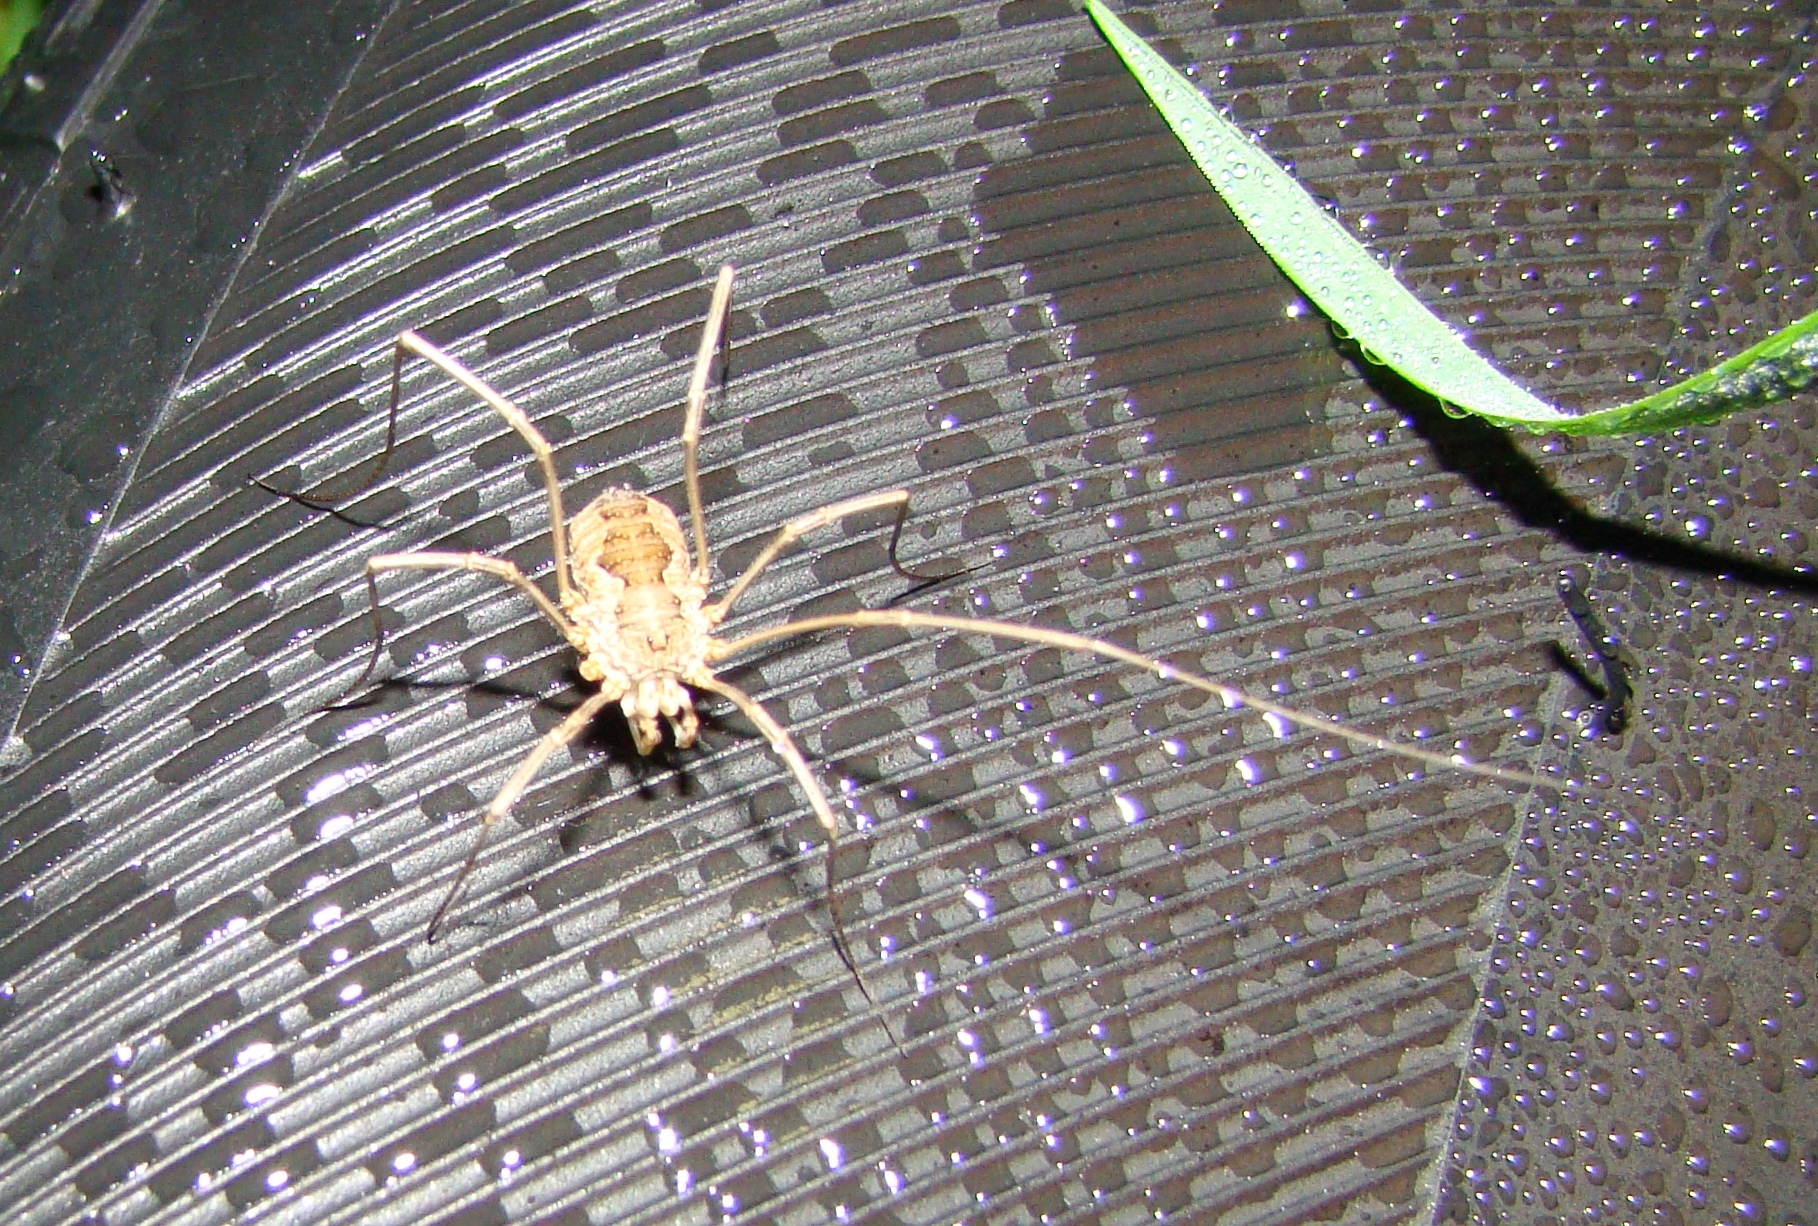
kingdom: Animalia
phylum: Arthropoda
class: Arachnida
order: Opiliones
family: Phalangiidae
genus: Phalangium
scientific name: Phalangium opilio
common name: Daddy longleg
